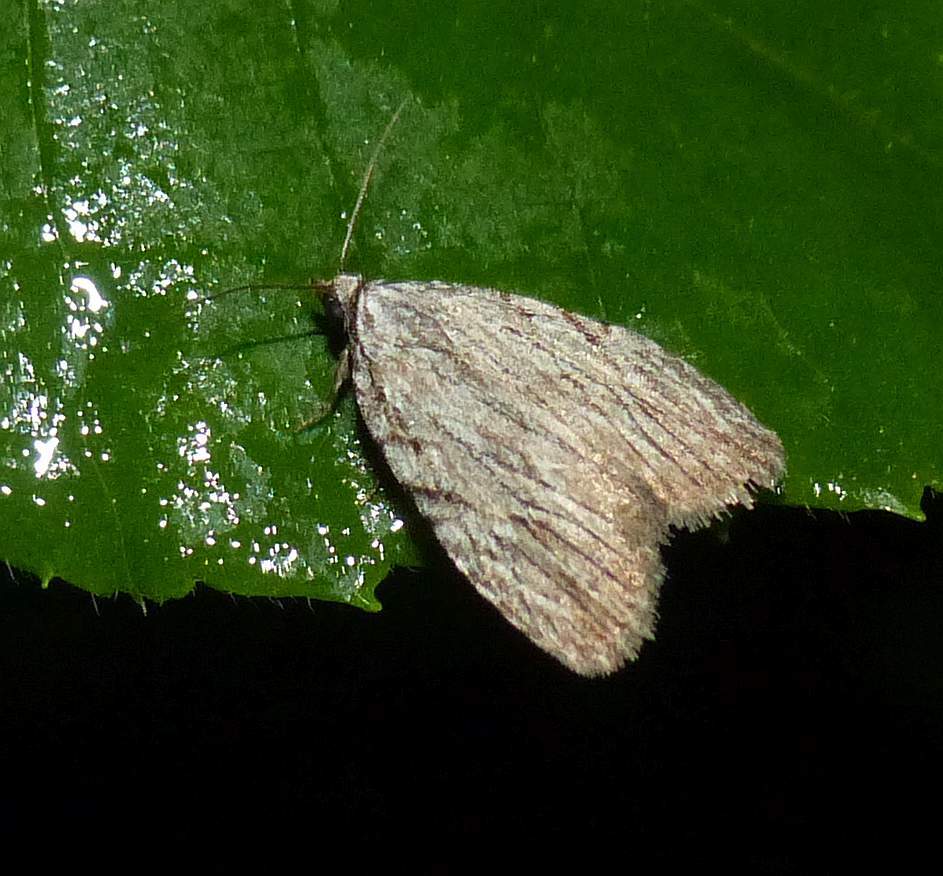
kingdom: Animalia
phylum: Arthropoda
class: Insecta
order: Lepidoptera
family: Noctuidae
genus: Balsa
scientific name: Balsa tristrigella
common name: Three-lined balsa moth
